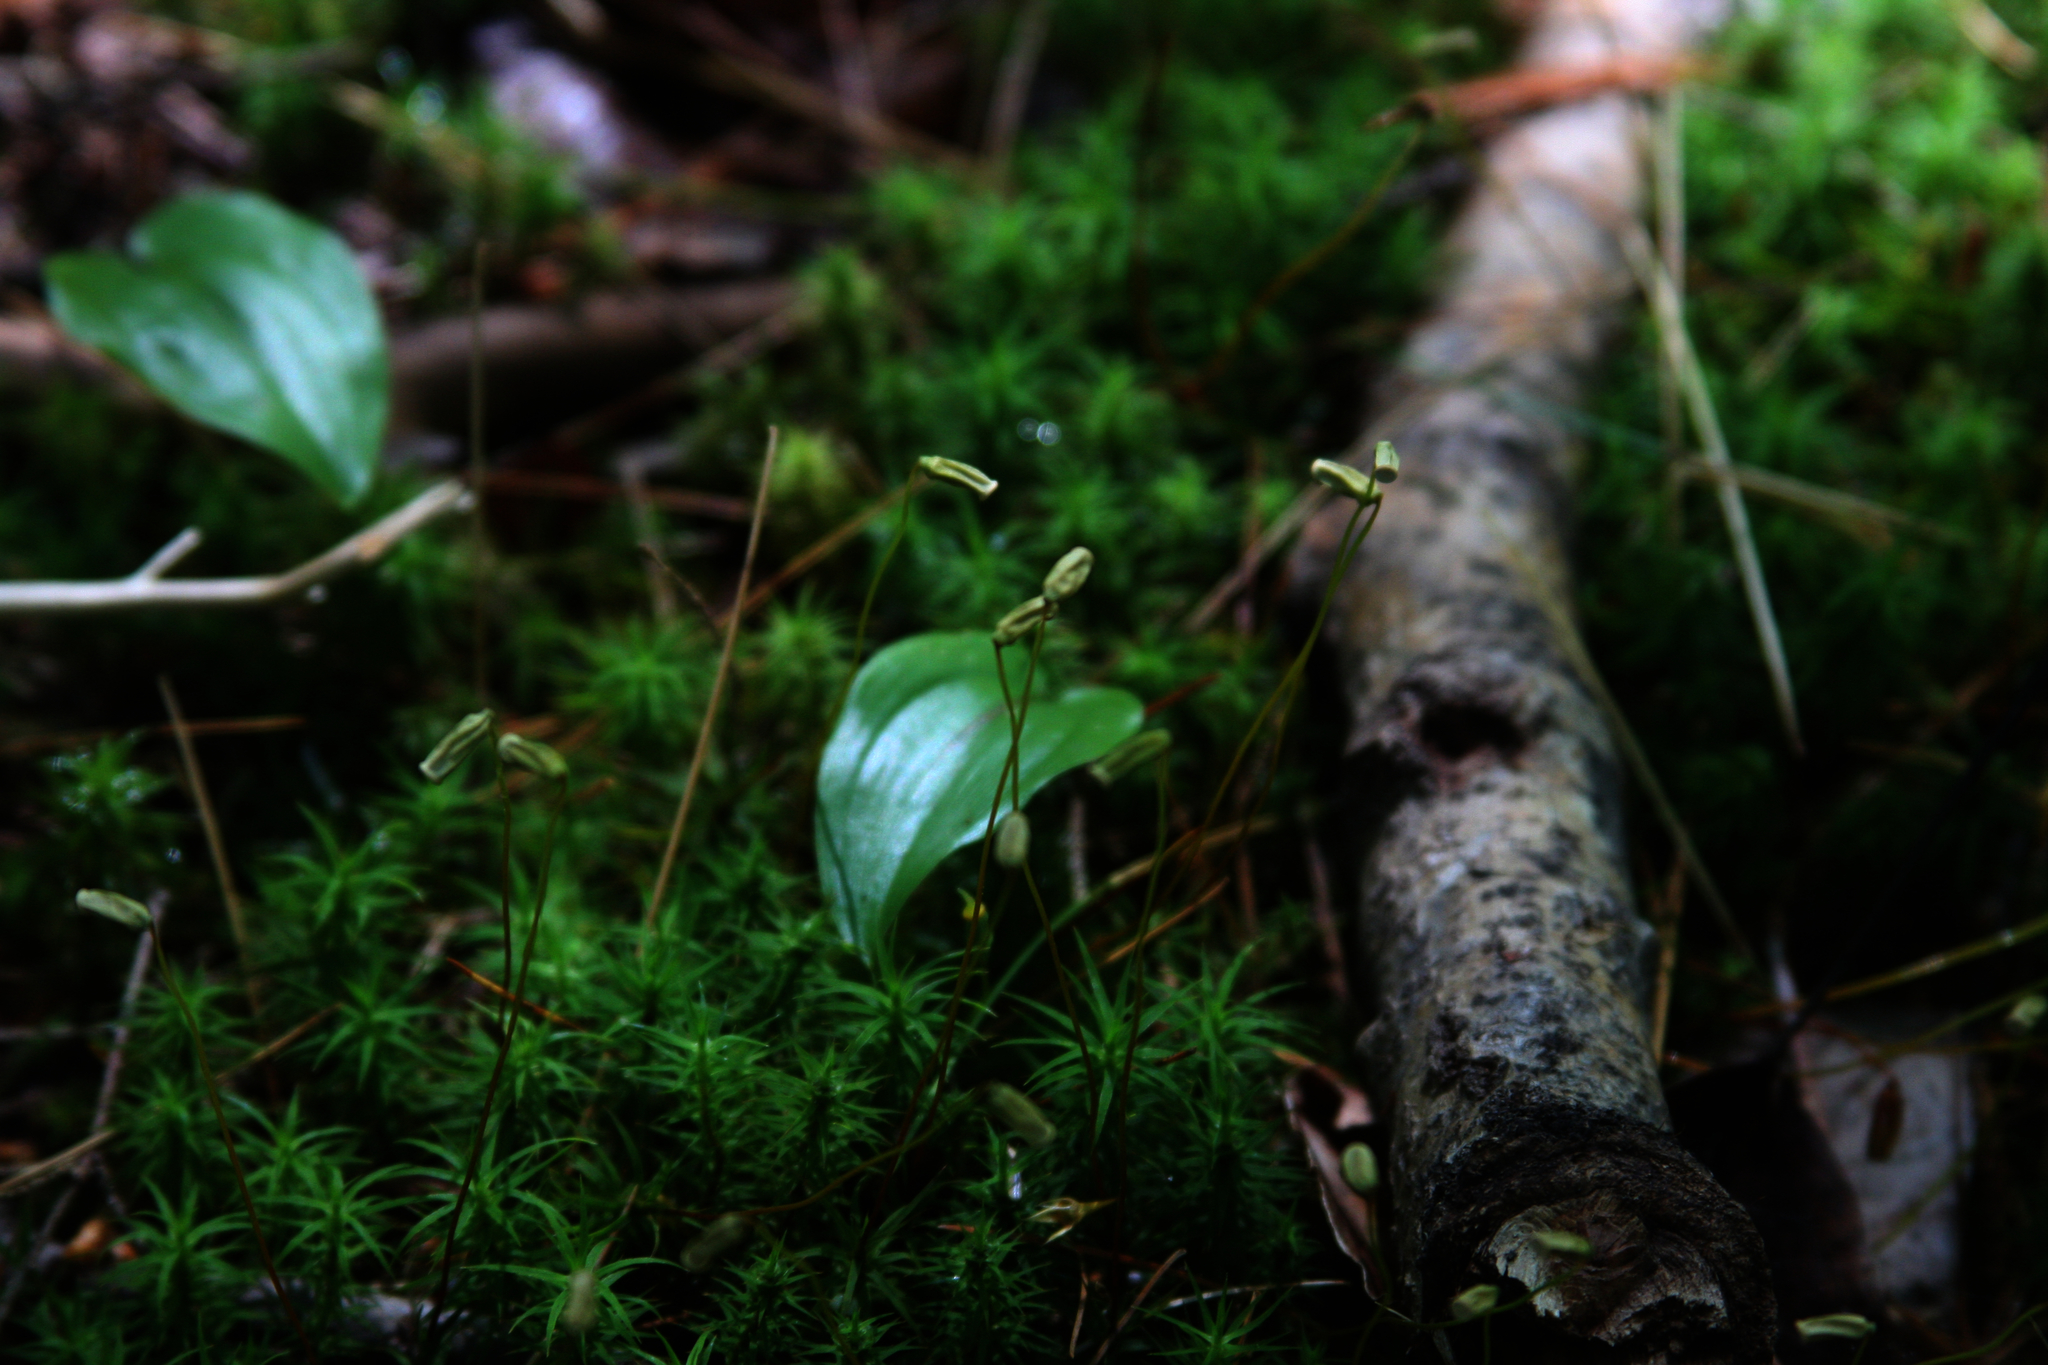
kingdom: Plantae
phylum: Tracheophyta
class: Liliopsida
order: Asparagales
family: Asparagaceae
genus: Maianthemum
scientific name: Maianthemum canadense
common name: False lily-of-the-valley
